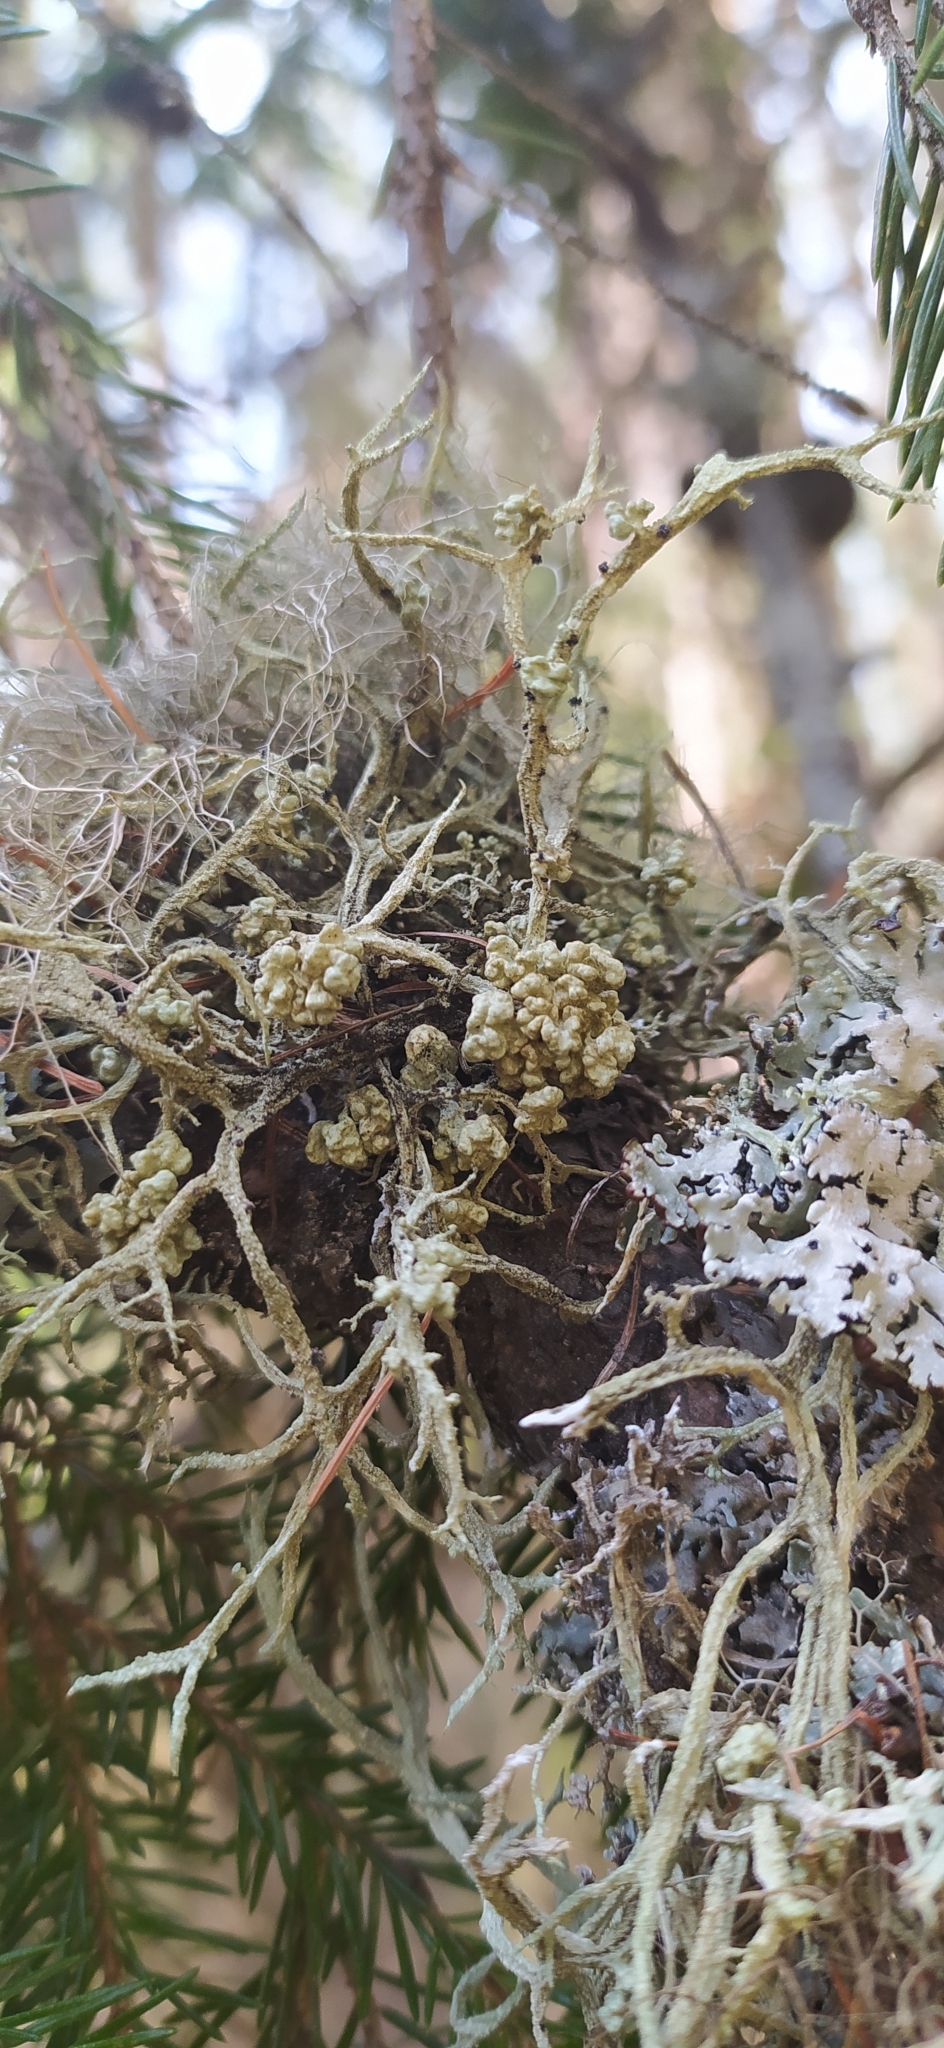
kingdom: Fungi
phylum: Ascomycota
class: Lecanoromycetes
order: Lecanorales
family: Parmeliaceae
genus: Evernia
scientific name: Evernia mesomorpha
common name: Boreal oak moss lichen
